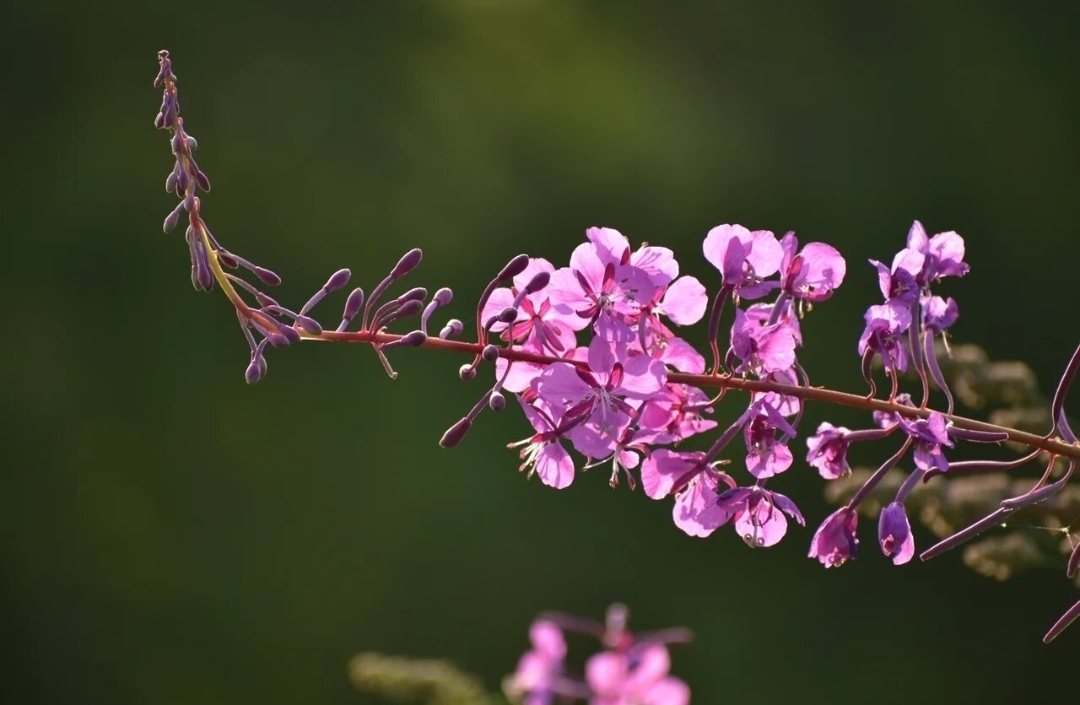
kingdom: Plantae
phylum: Tracheophyta
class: Magnoliopsida
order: Myrtales
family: Onagraceae
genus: Chamaenerion
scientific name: Chamaenerion angustifolium
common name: Fireweed
